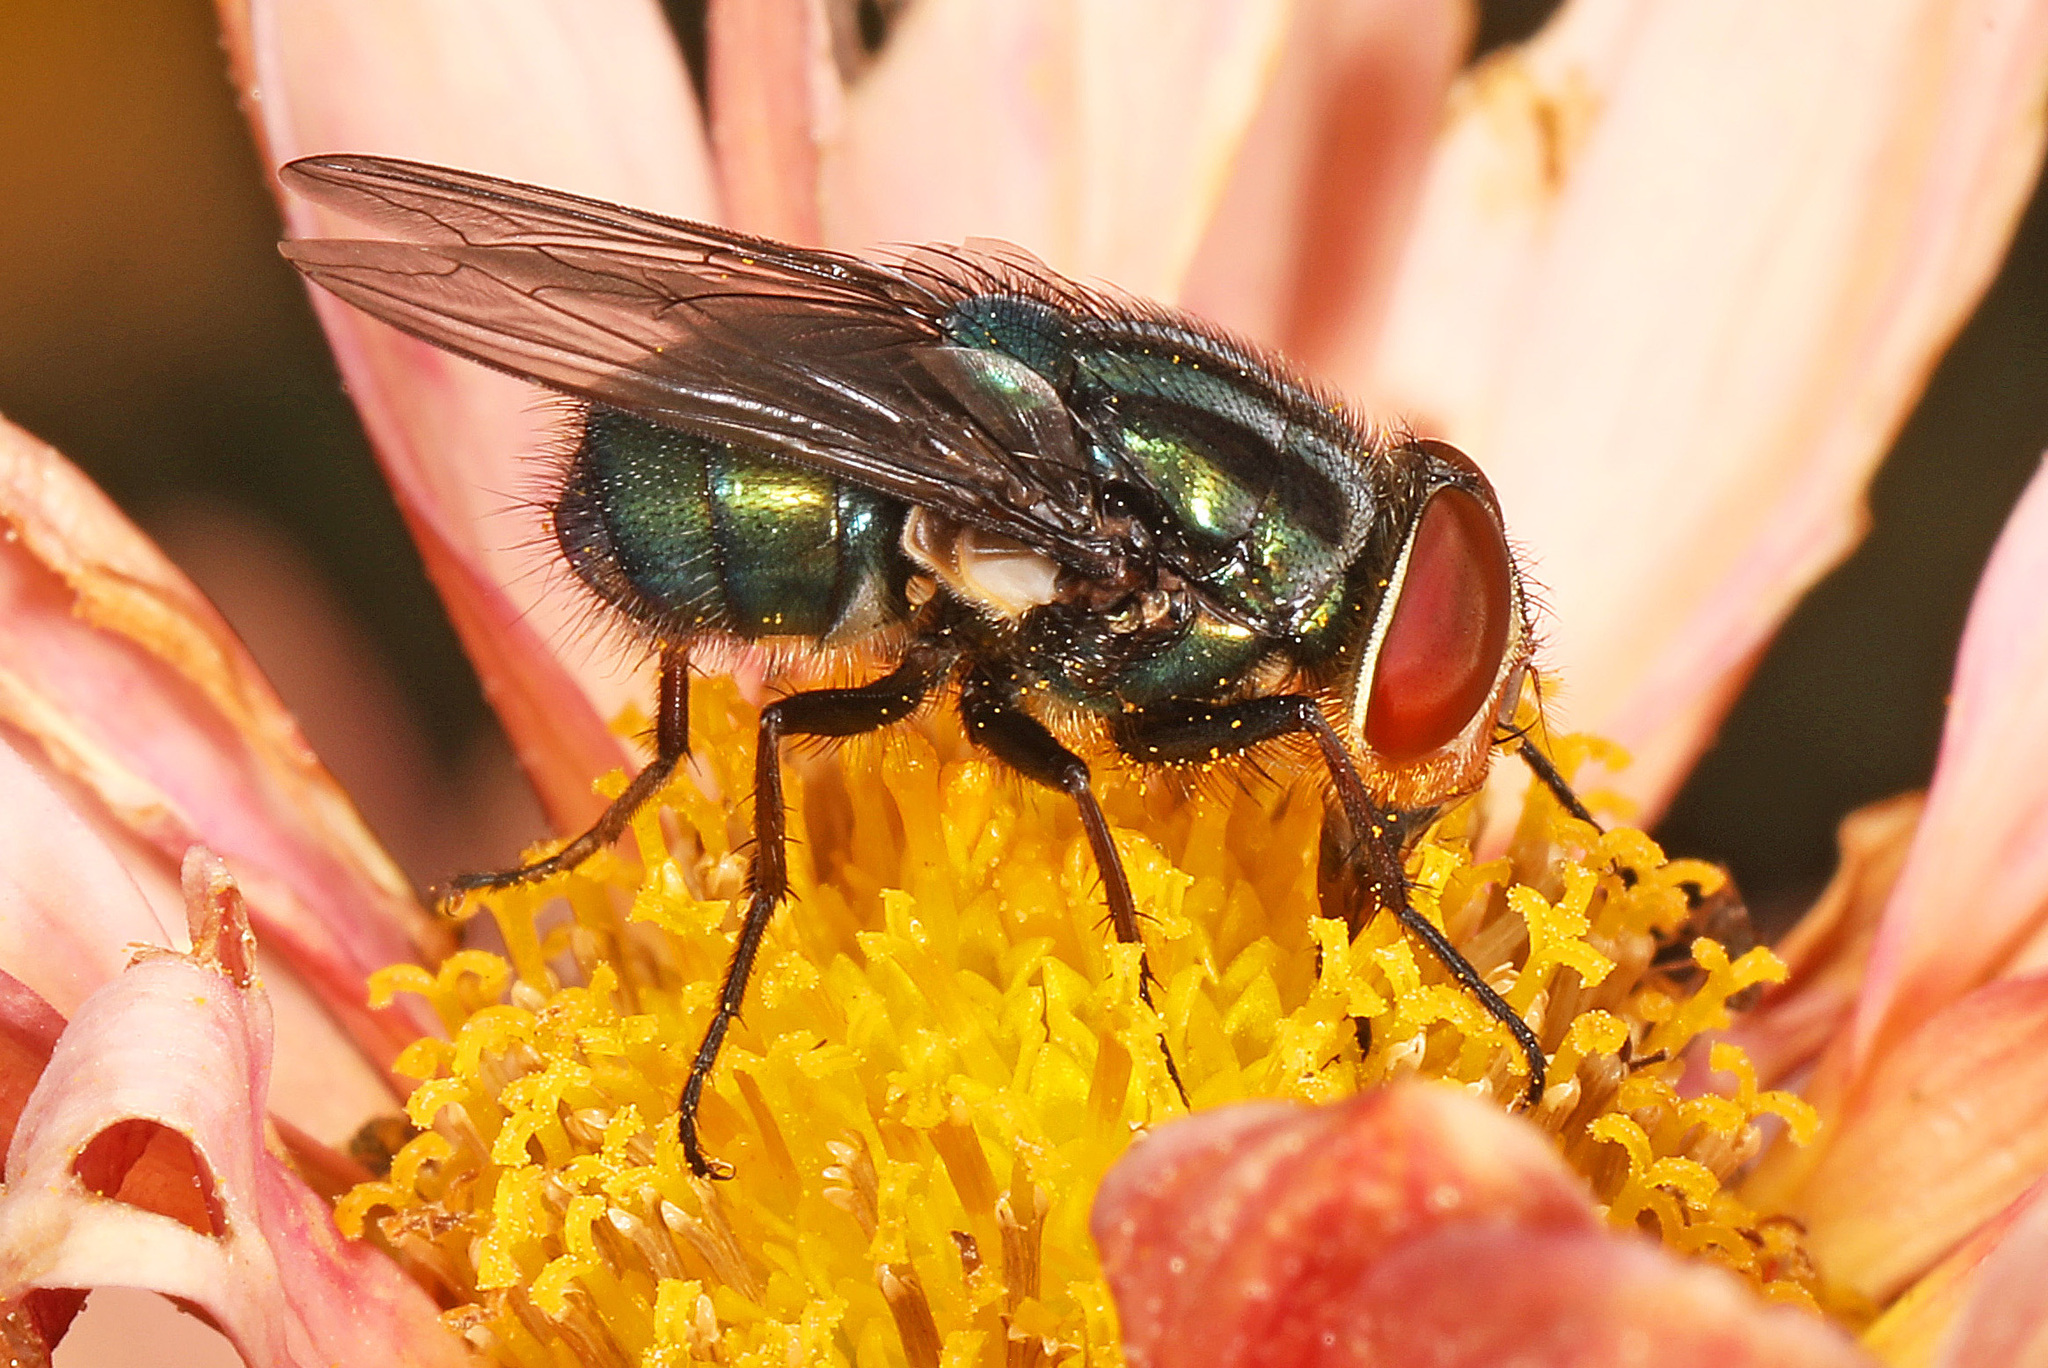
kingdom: Animalia
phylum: Arthropoda
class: Insecta
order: Diptera
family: Calliphoridae
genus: Cochliomyia
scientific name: Cochliomyia macellaria
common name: Secondary screwworm
